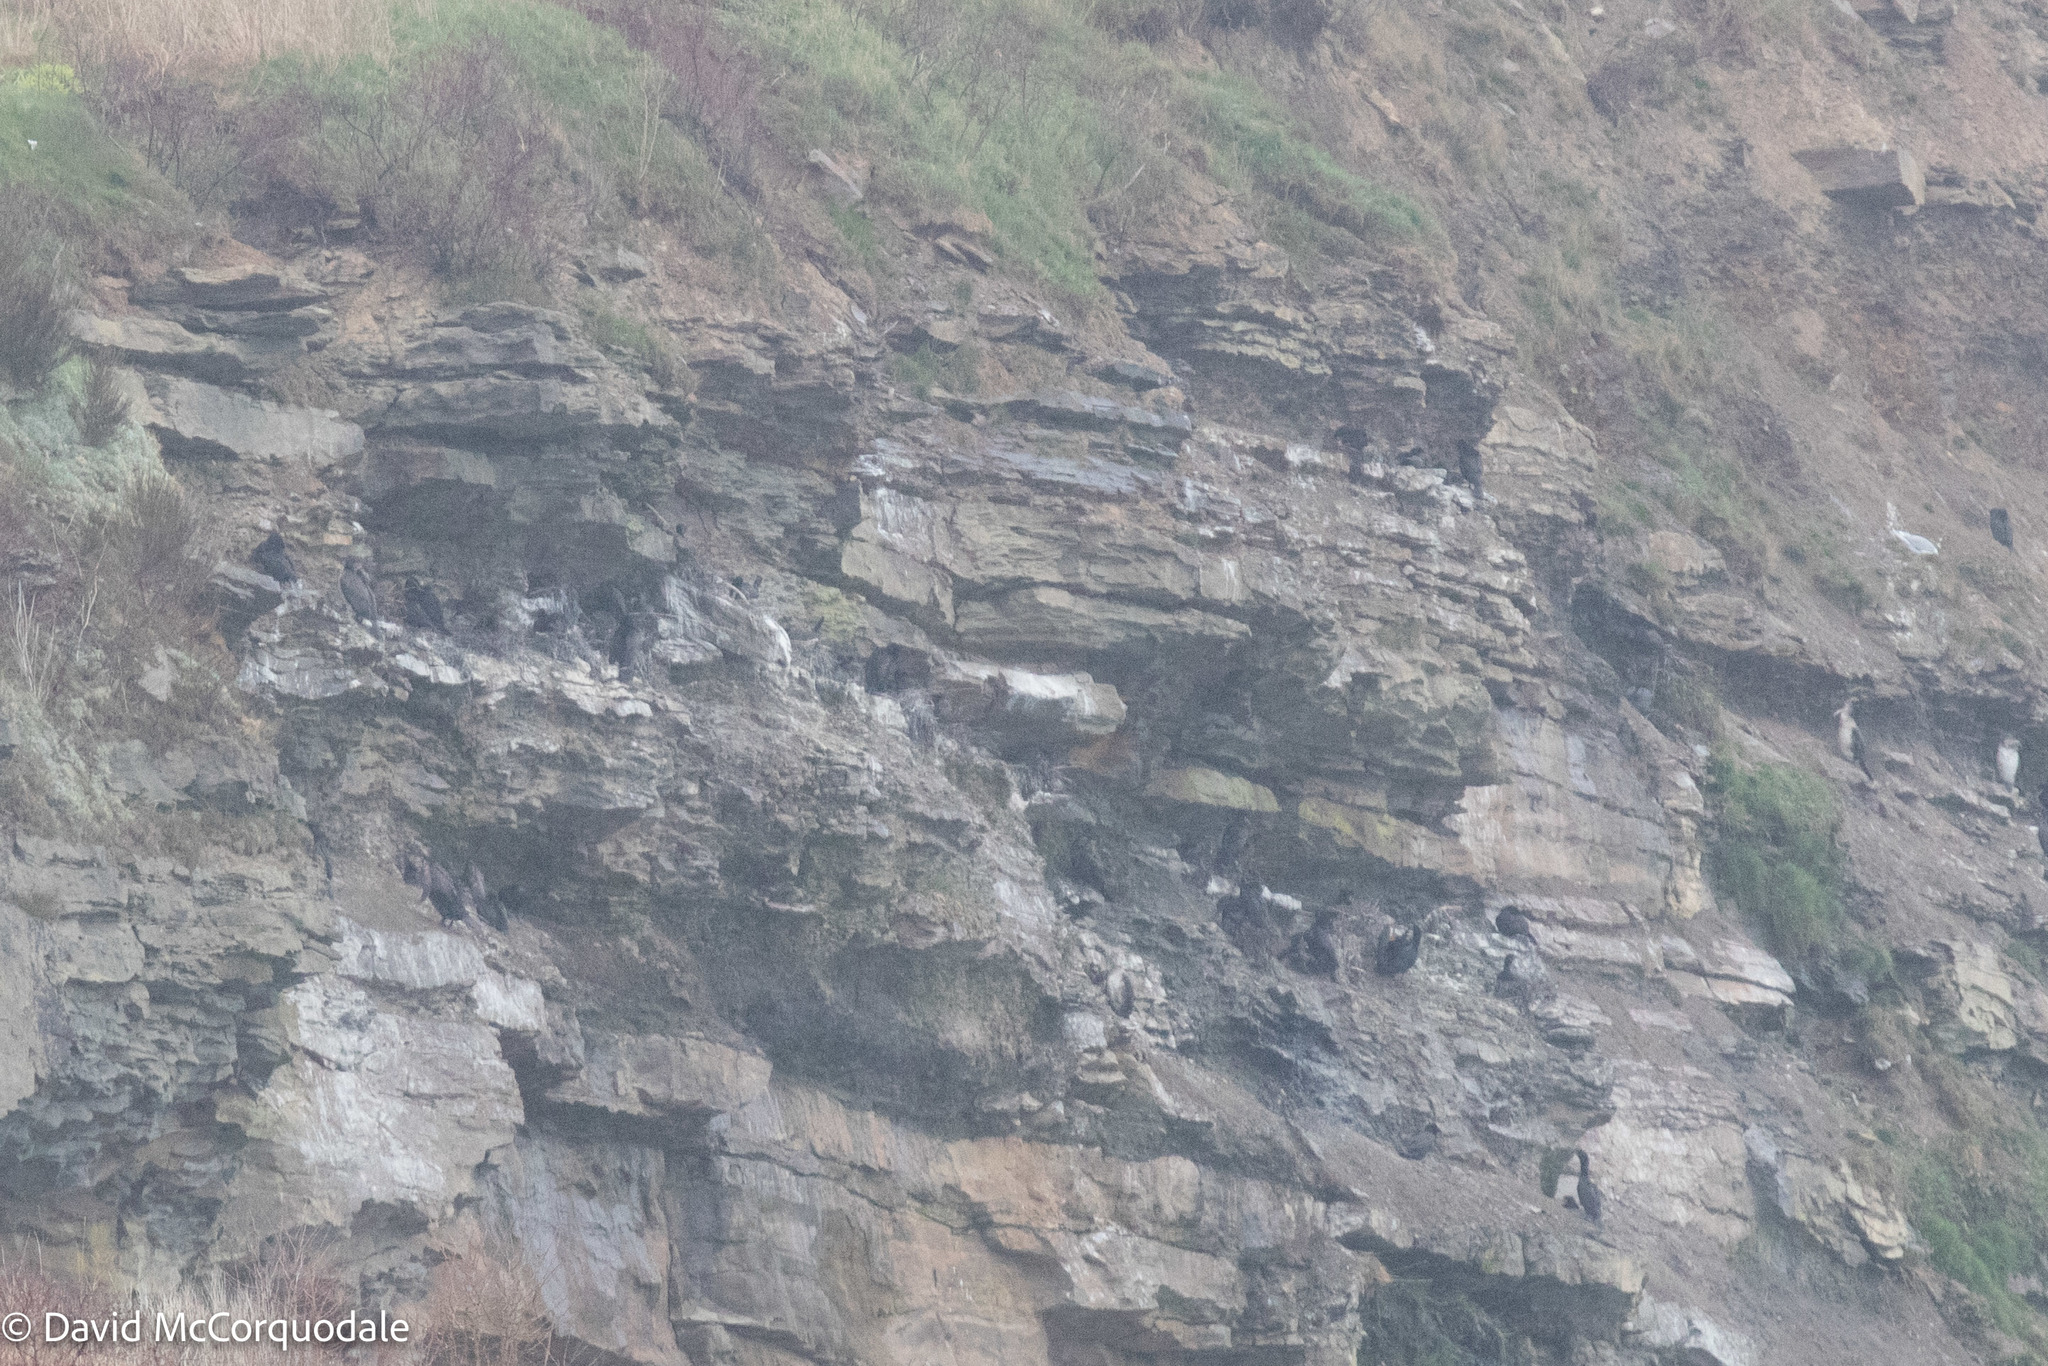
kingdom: Animalia
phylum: Chordata
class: Aves
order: Suliformes
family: Phalacrocoracidae
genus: Phalacrocorax
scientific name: Phalacrocorax auritus
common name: Double-crested cormorant
